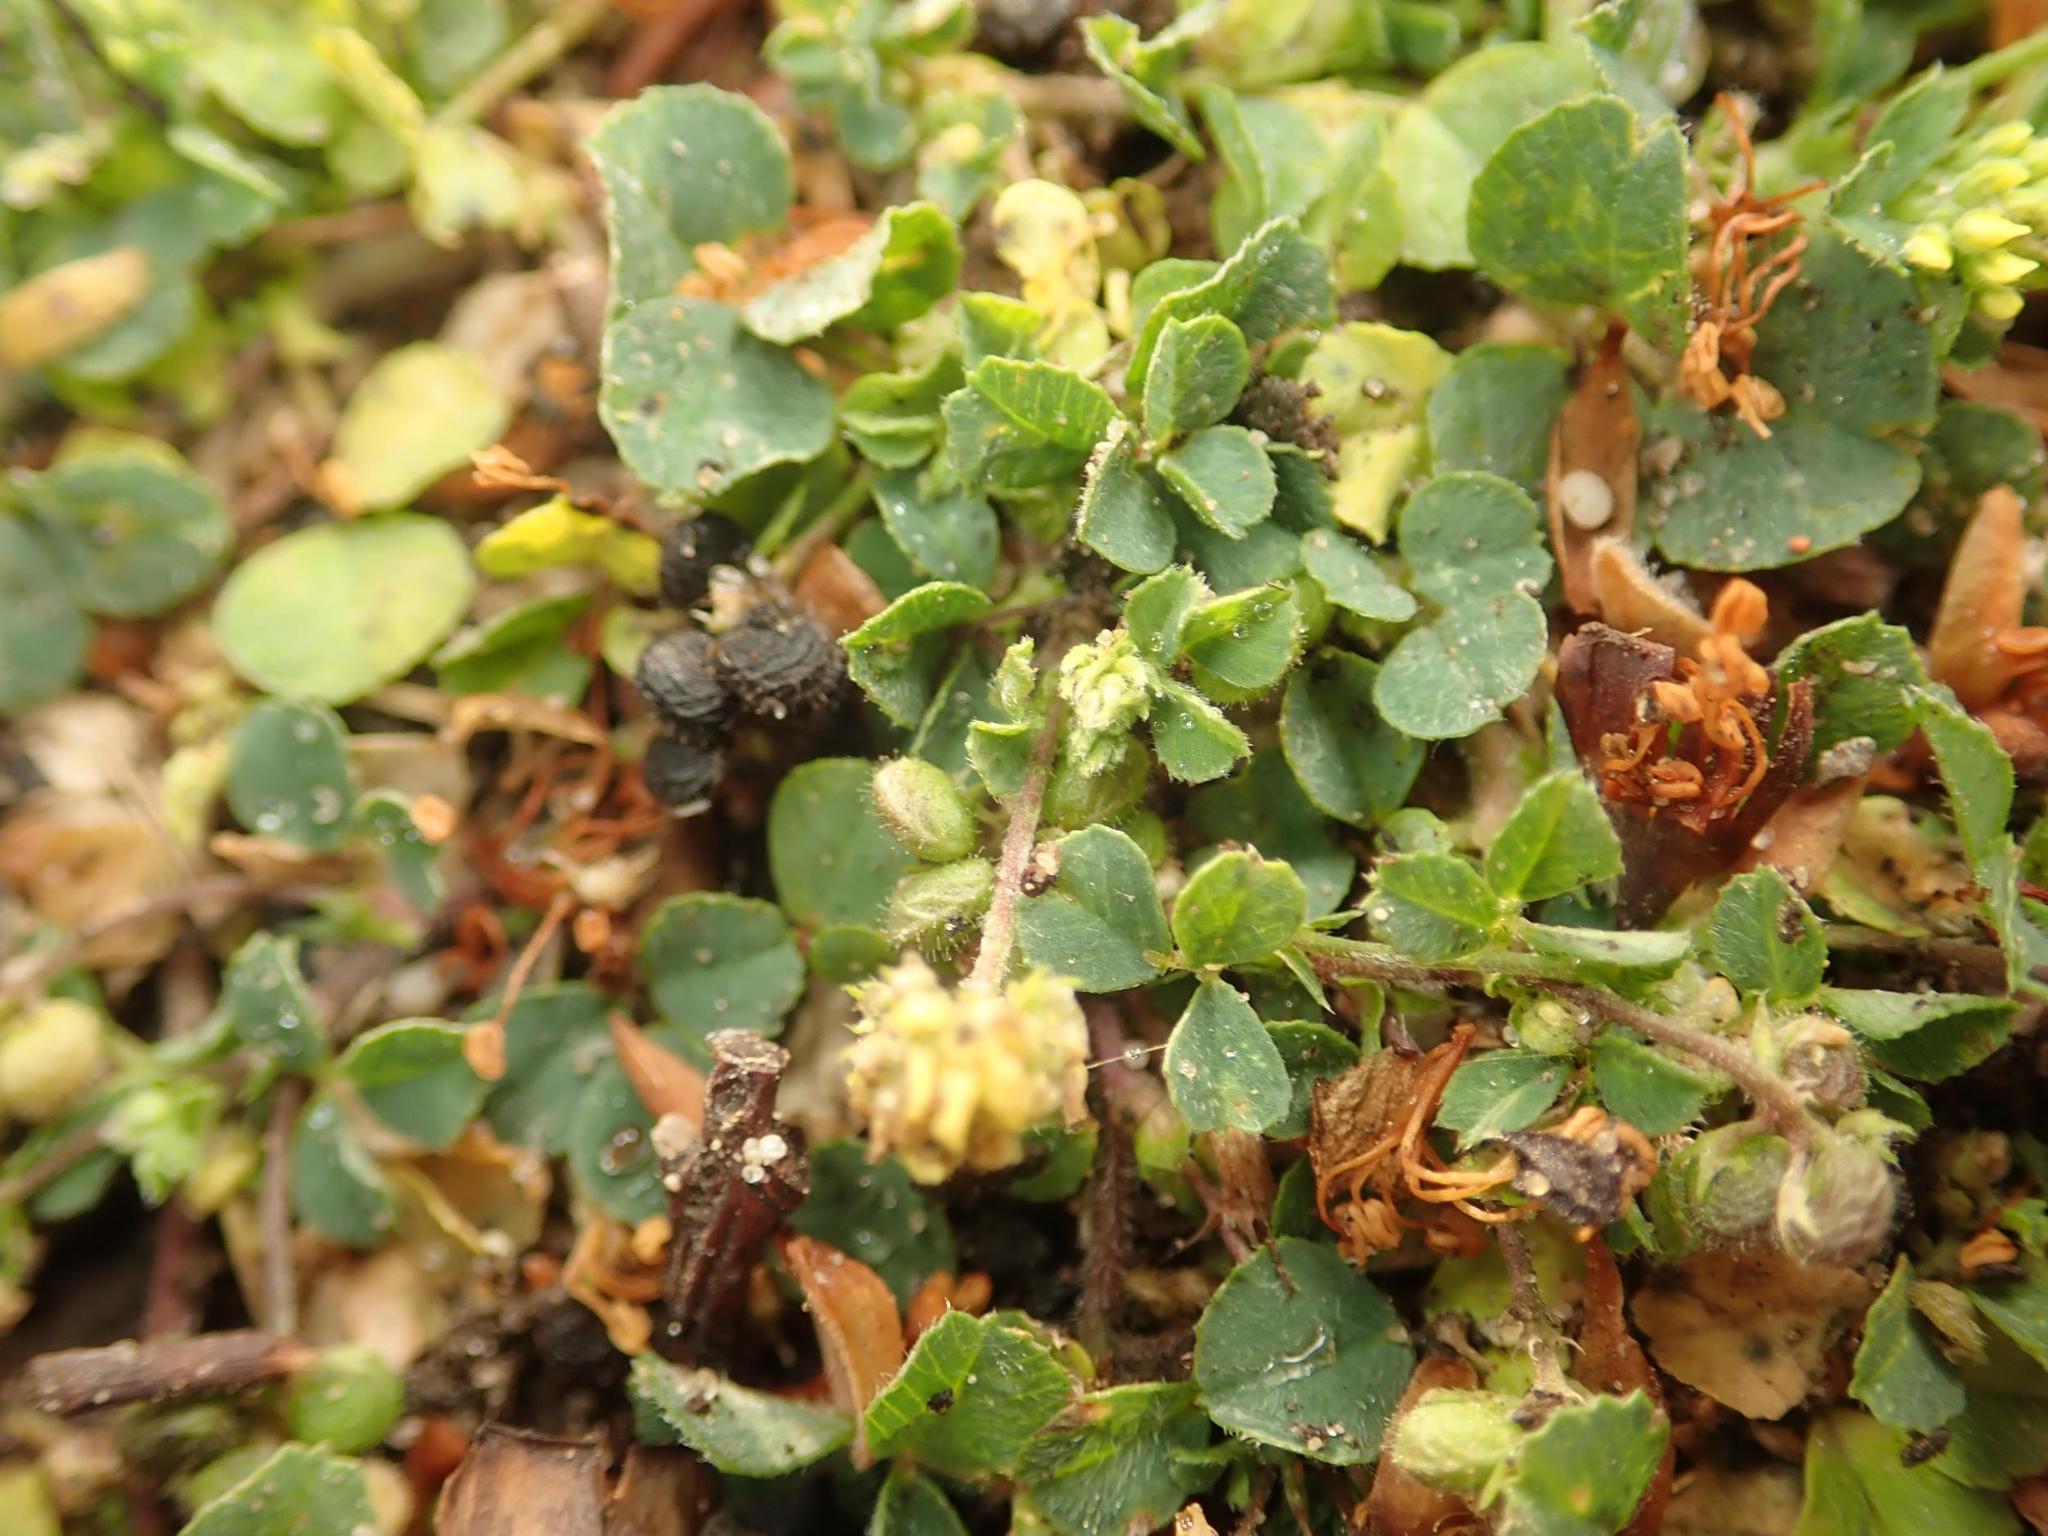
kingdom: Plantae
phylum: Tracheophyta
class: Magnoliopsida
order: Fabales
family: Fabaceae
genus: Medicago
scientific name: Medicago lupulina
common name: Black medick
